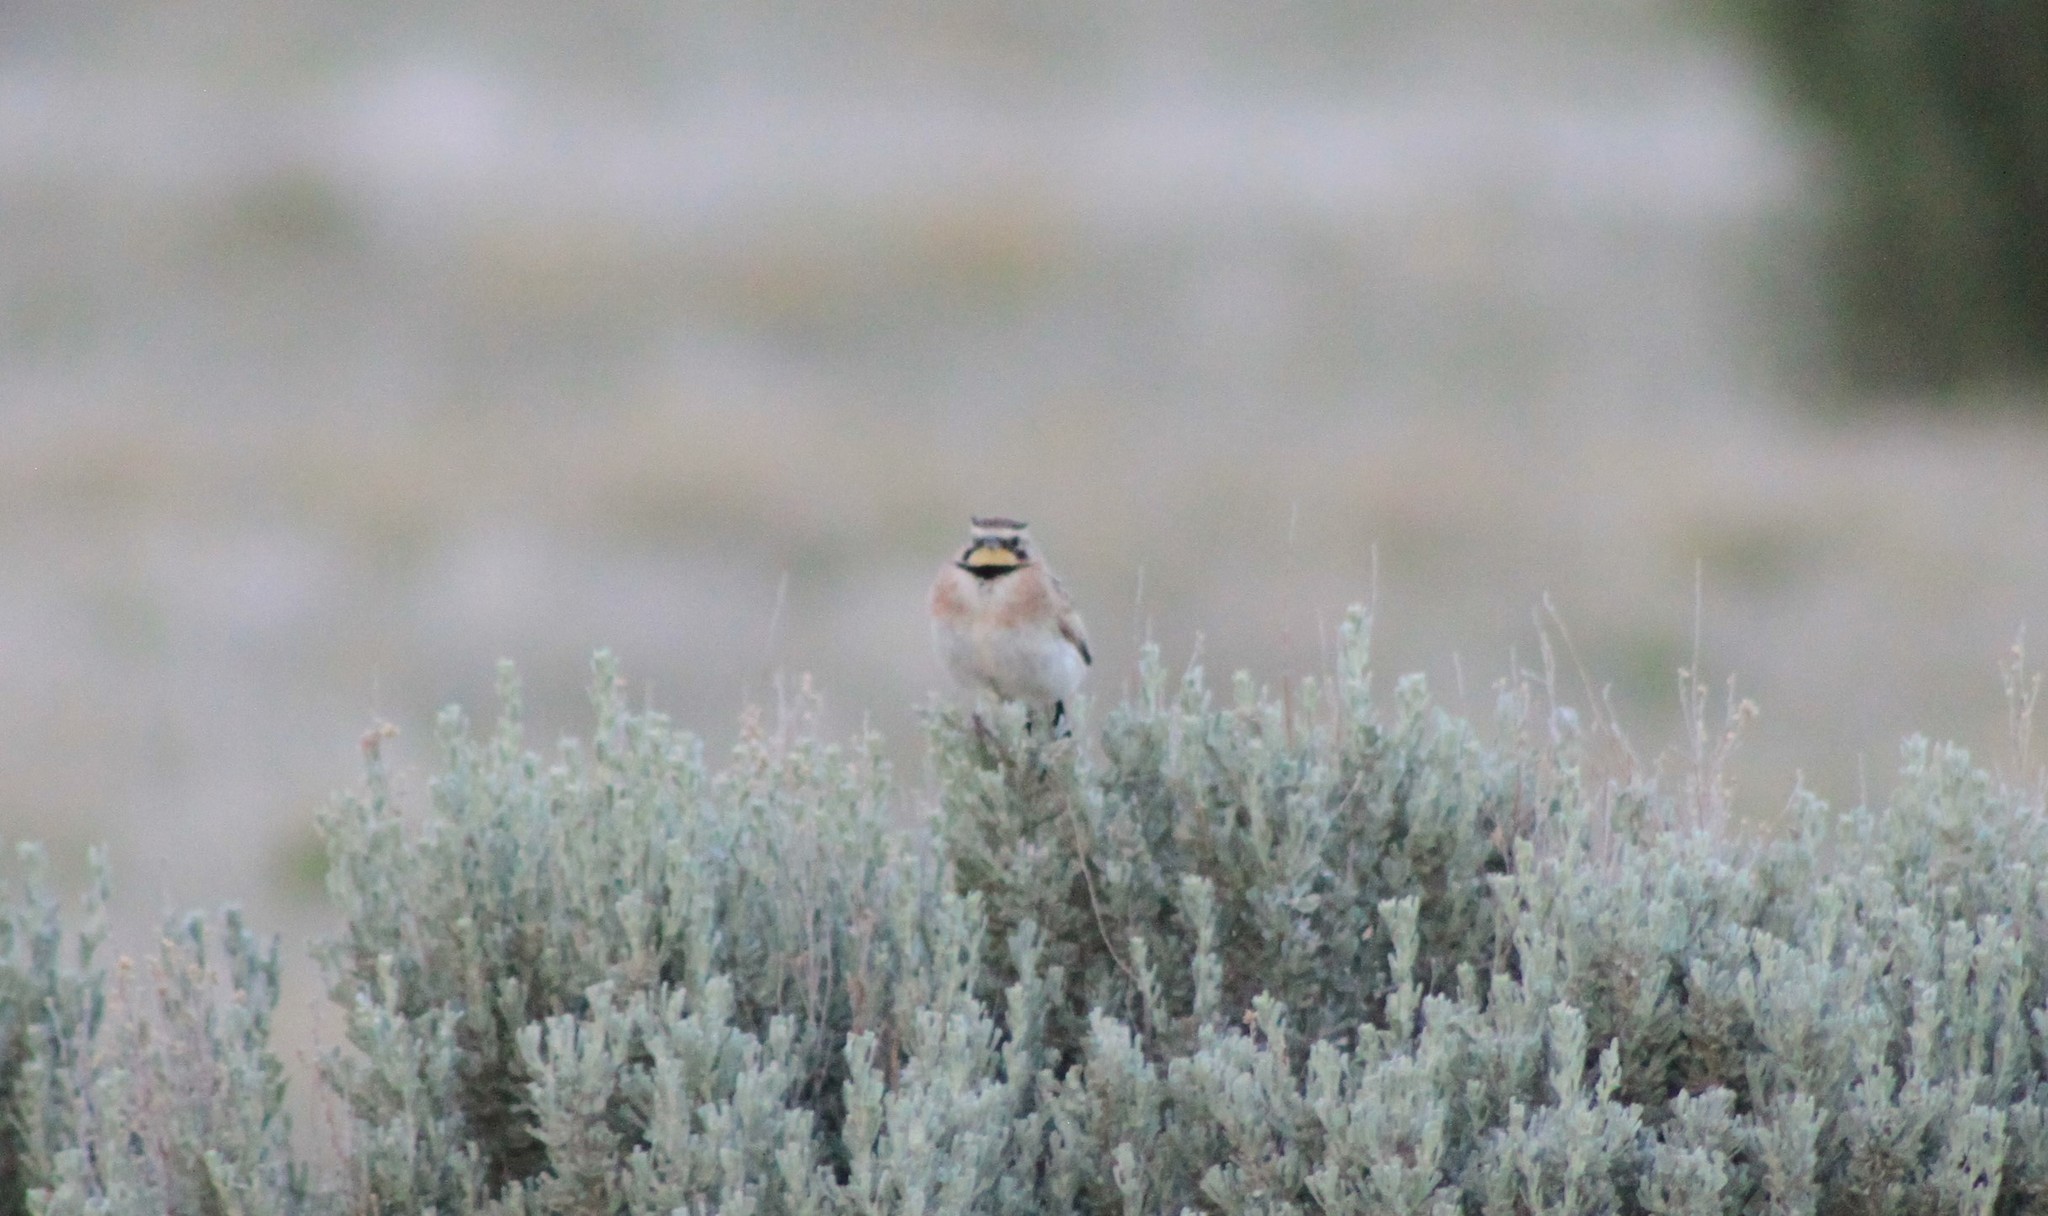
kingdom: Animalia
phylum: Chordata
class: Aves
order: Passeriformes
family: Alaudidae
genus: Eremophila
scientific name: Eremophila alpestris
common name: Horned lark
